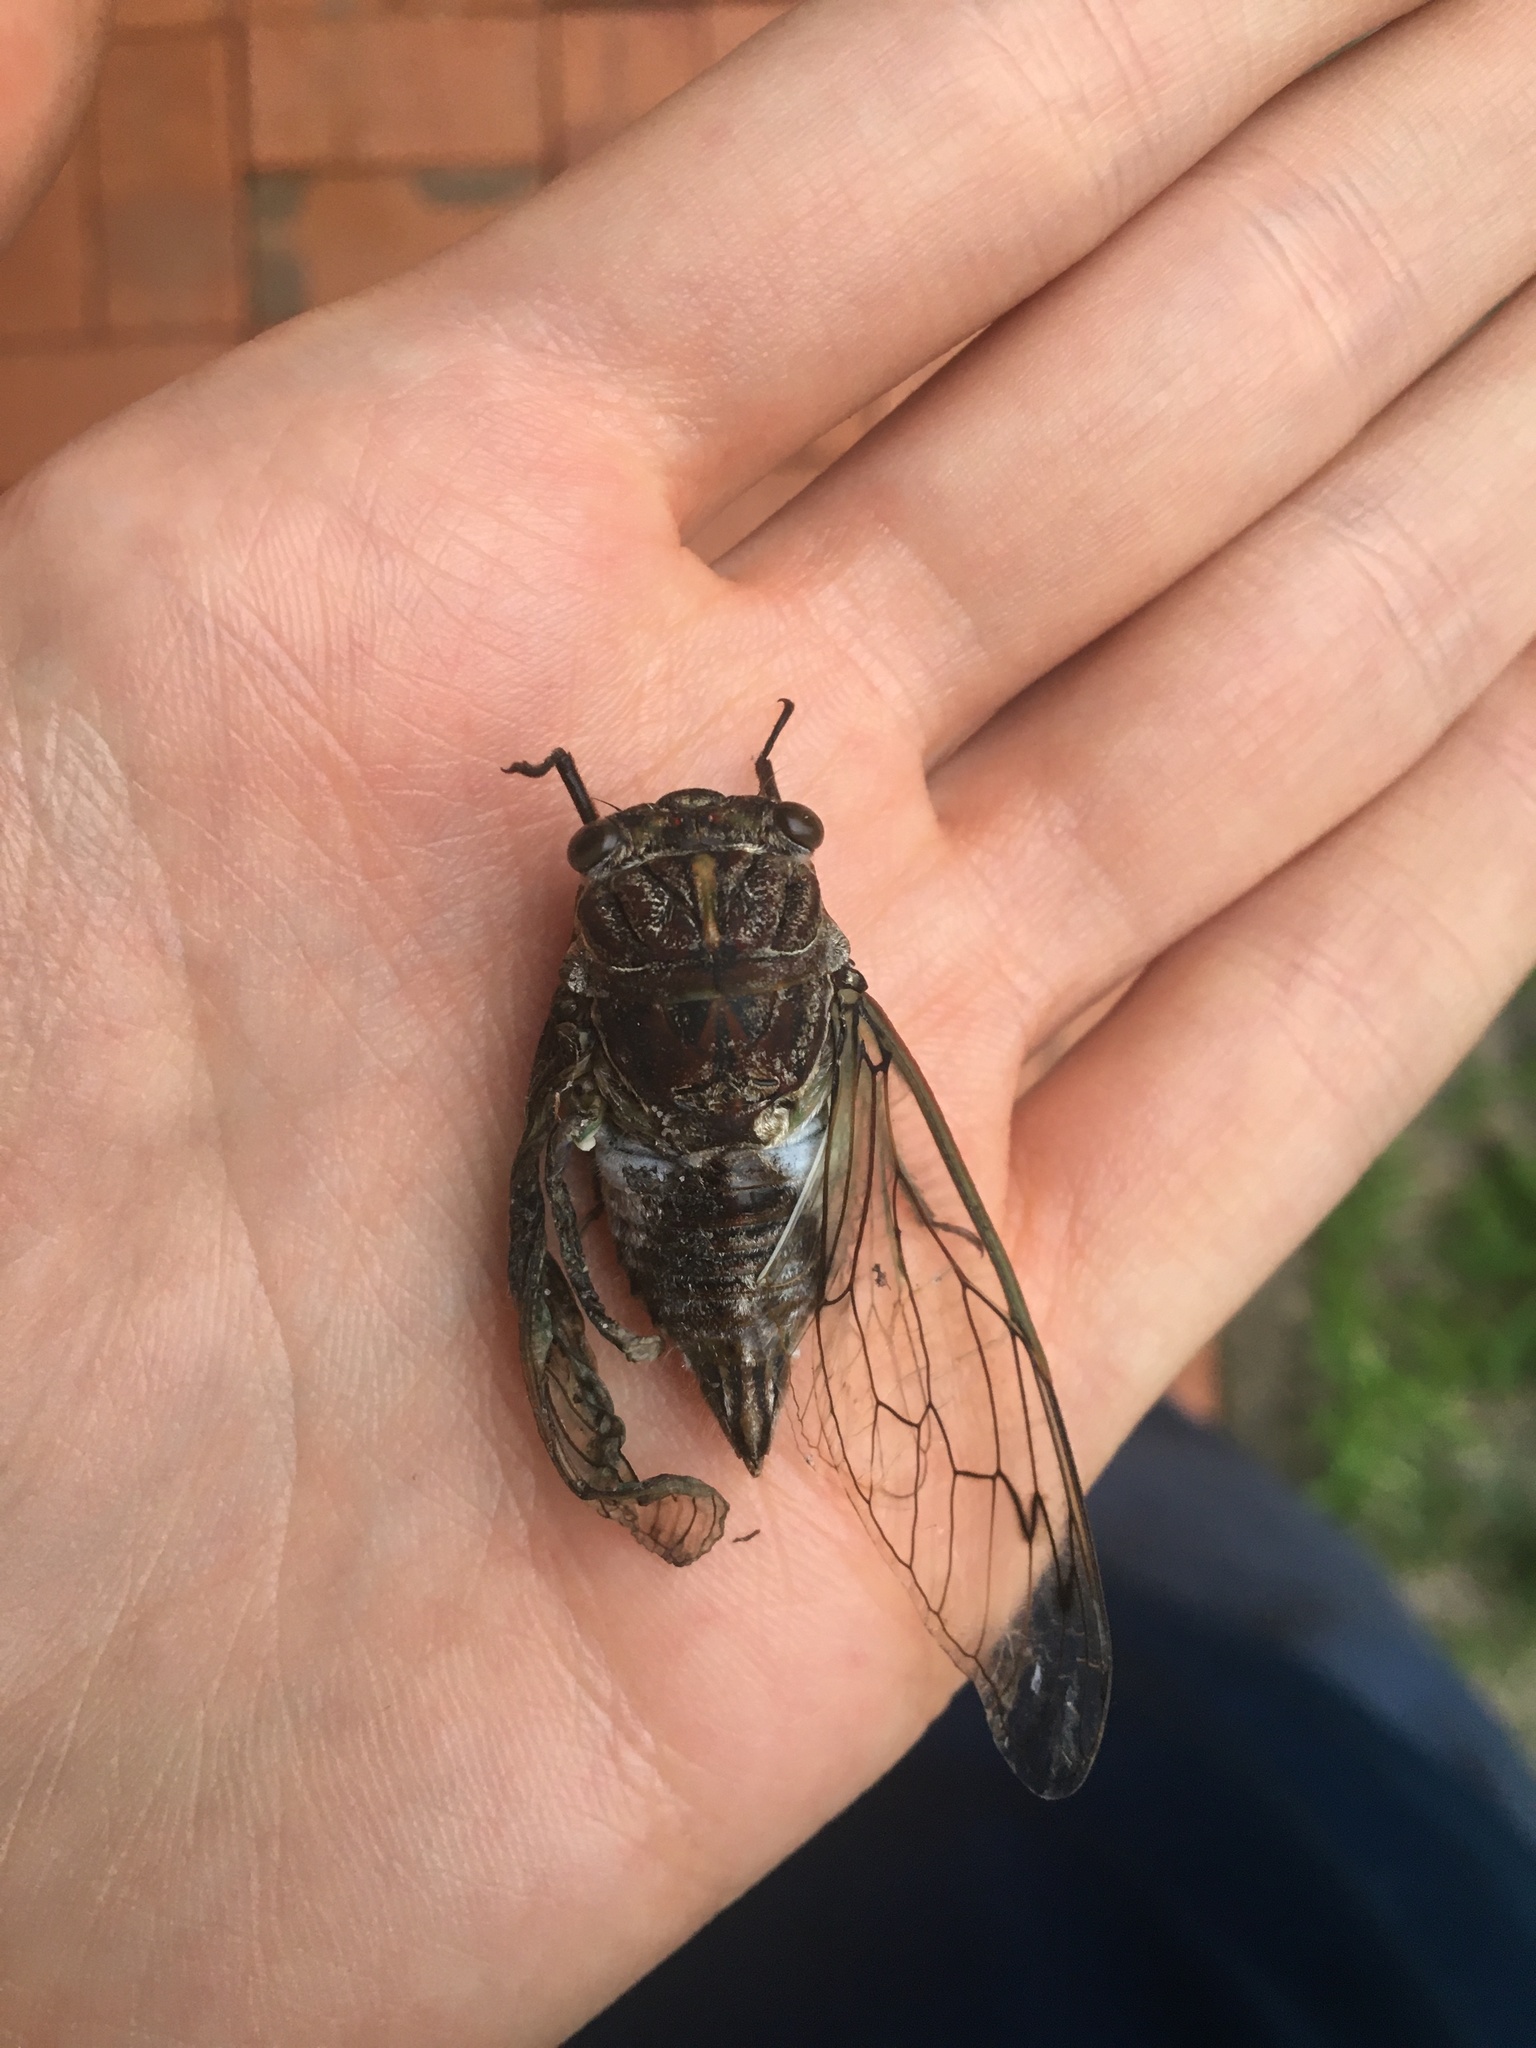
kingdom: Animalia
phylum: Arthropoda
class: Insecta
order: Hemiptera
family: Cicadidae
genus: Arunta
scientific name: Arunta perulata
